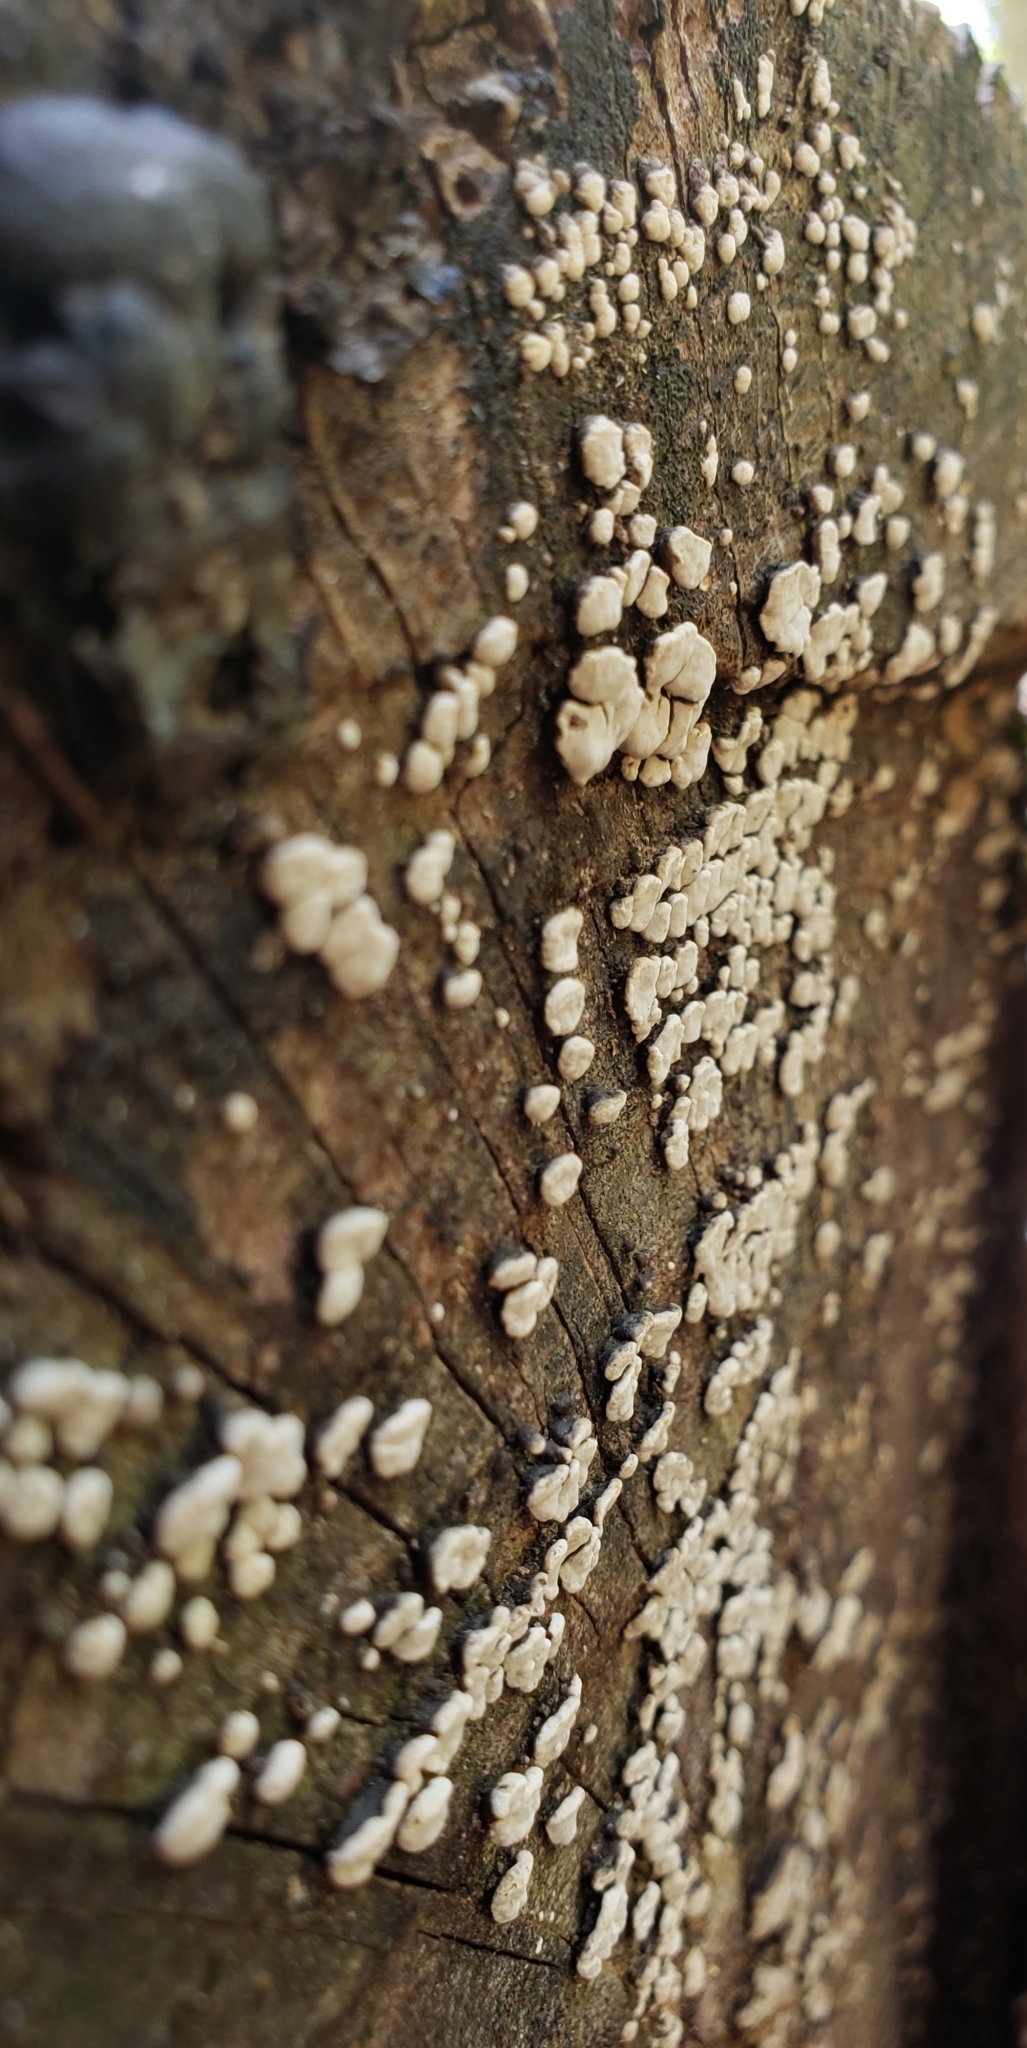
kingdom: Fungi
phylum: Basidiomycota
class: Agaricomycetes
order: Russulales
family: Stereaceae
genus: Xylobolus
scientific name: Xylobolus frustulatus
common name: Ceramic parchment
